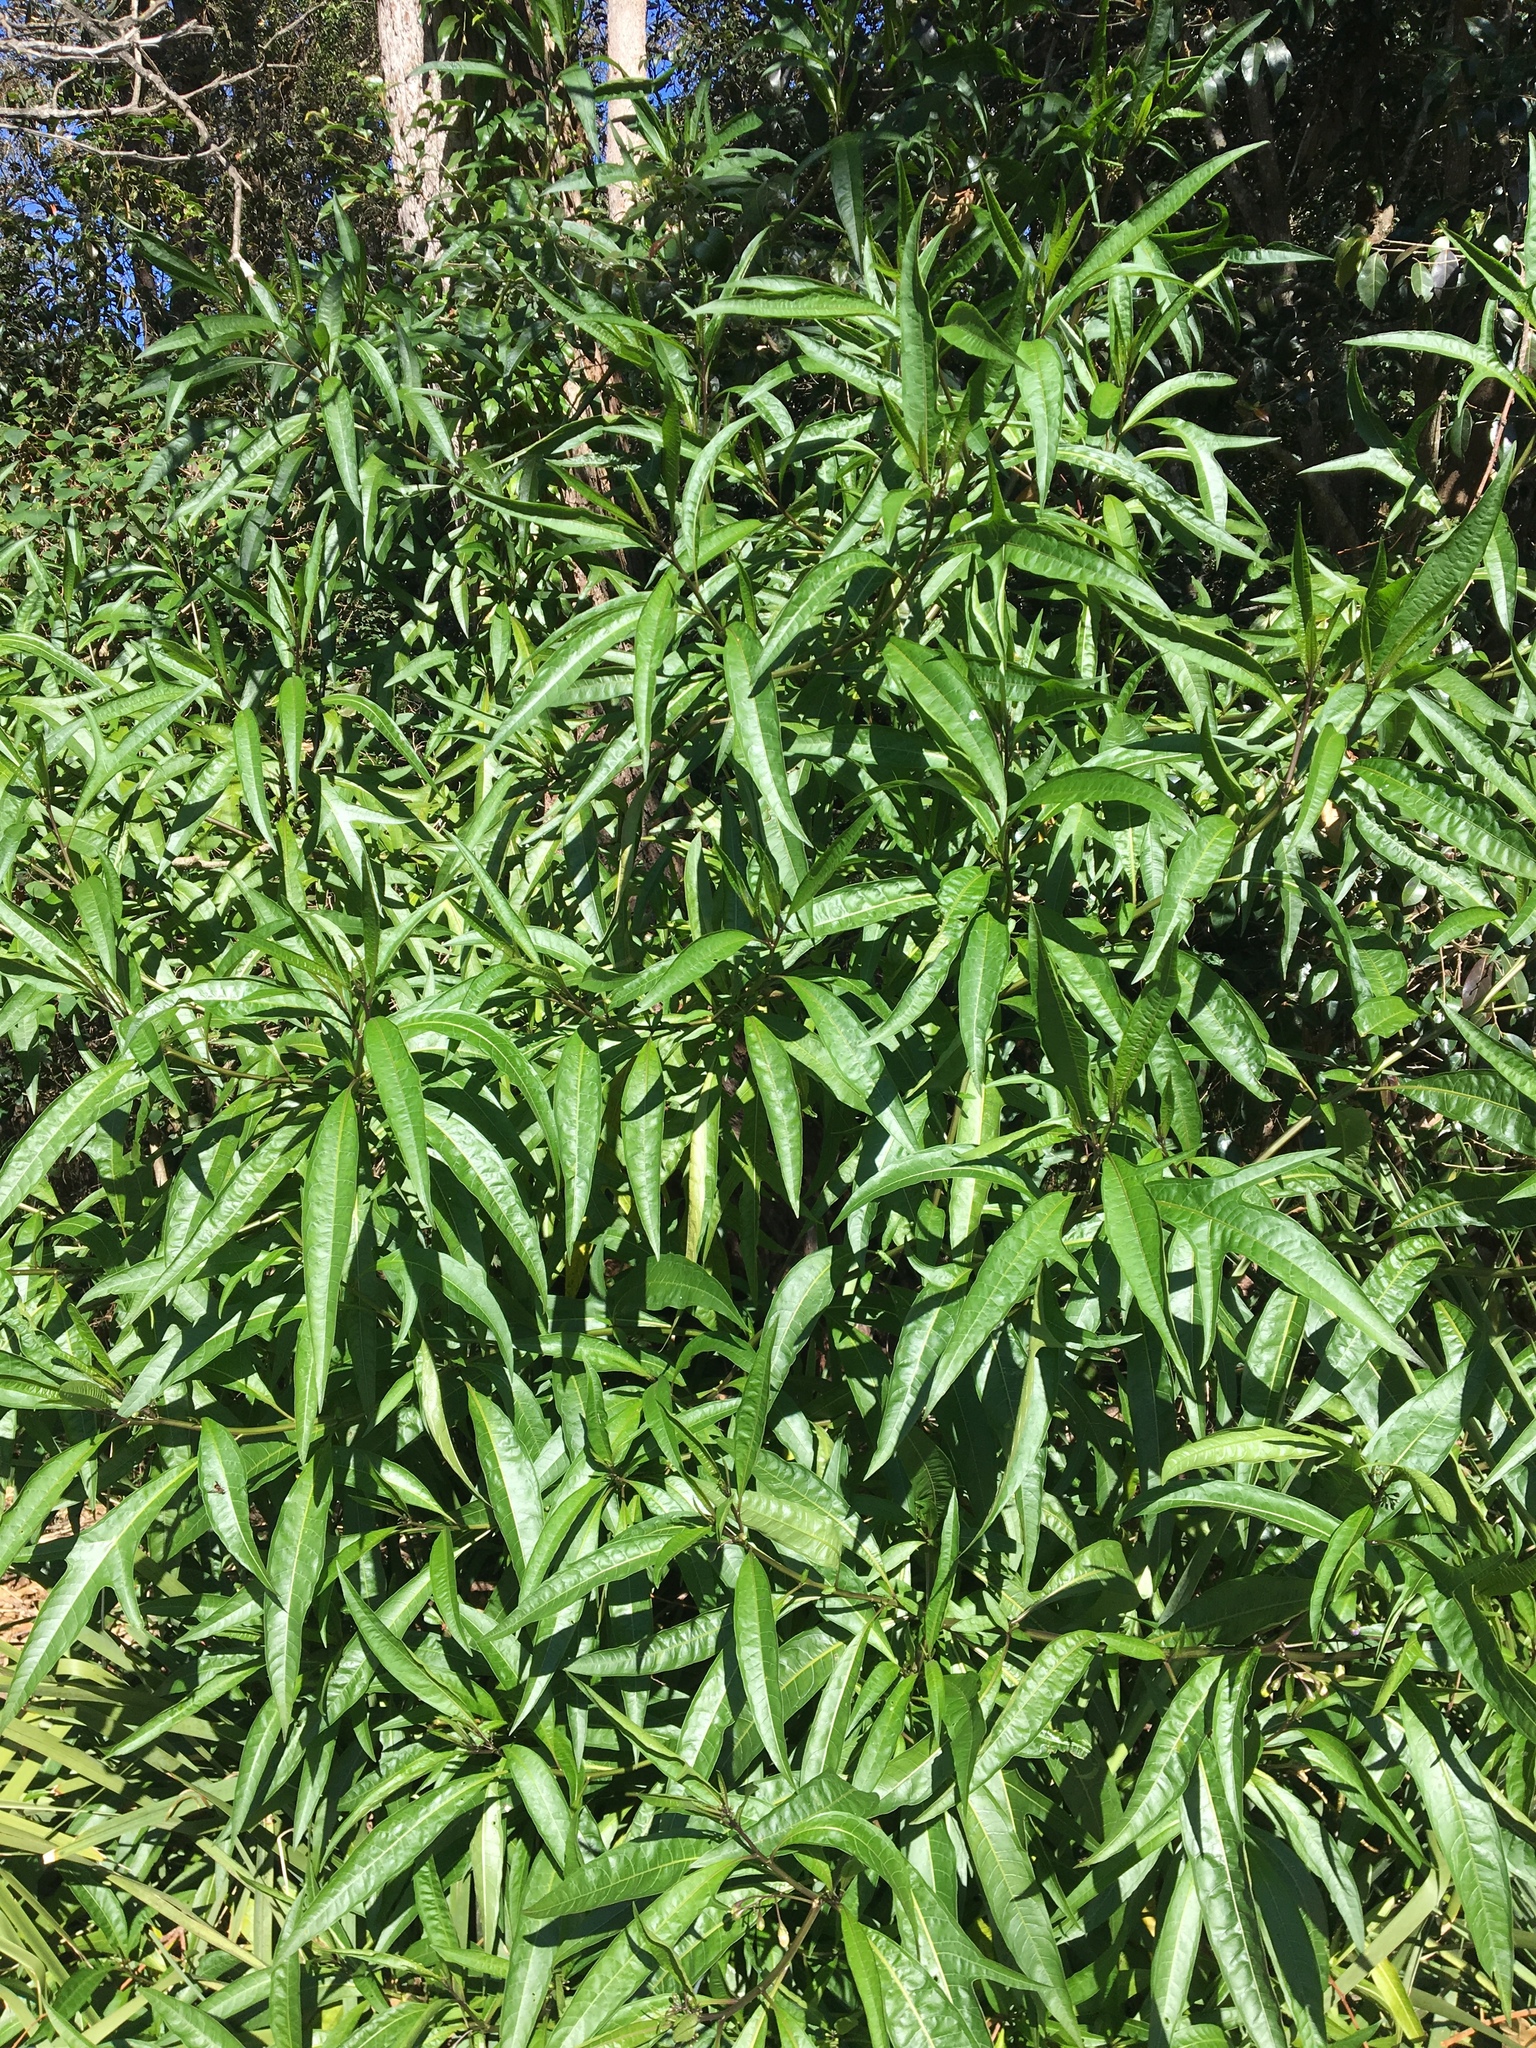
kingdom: Plantae
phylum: Tracheophyta
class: Magnoliopsida
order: Solanales
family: Solanaceae
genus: Solanum
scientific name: Solanum aviculare
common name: New zealand nightshade
